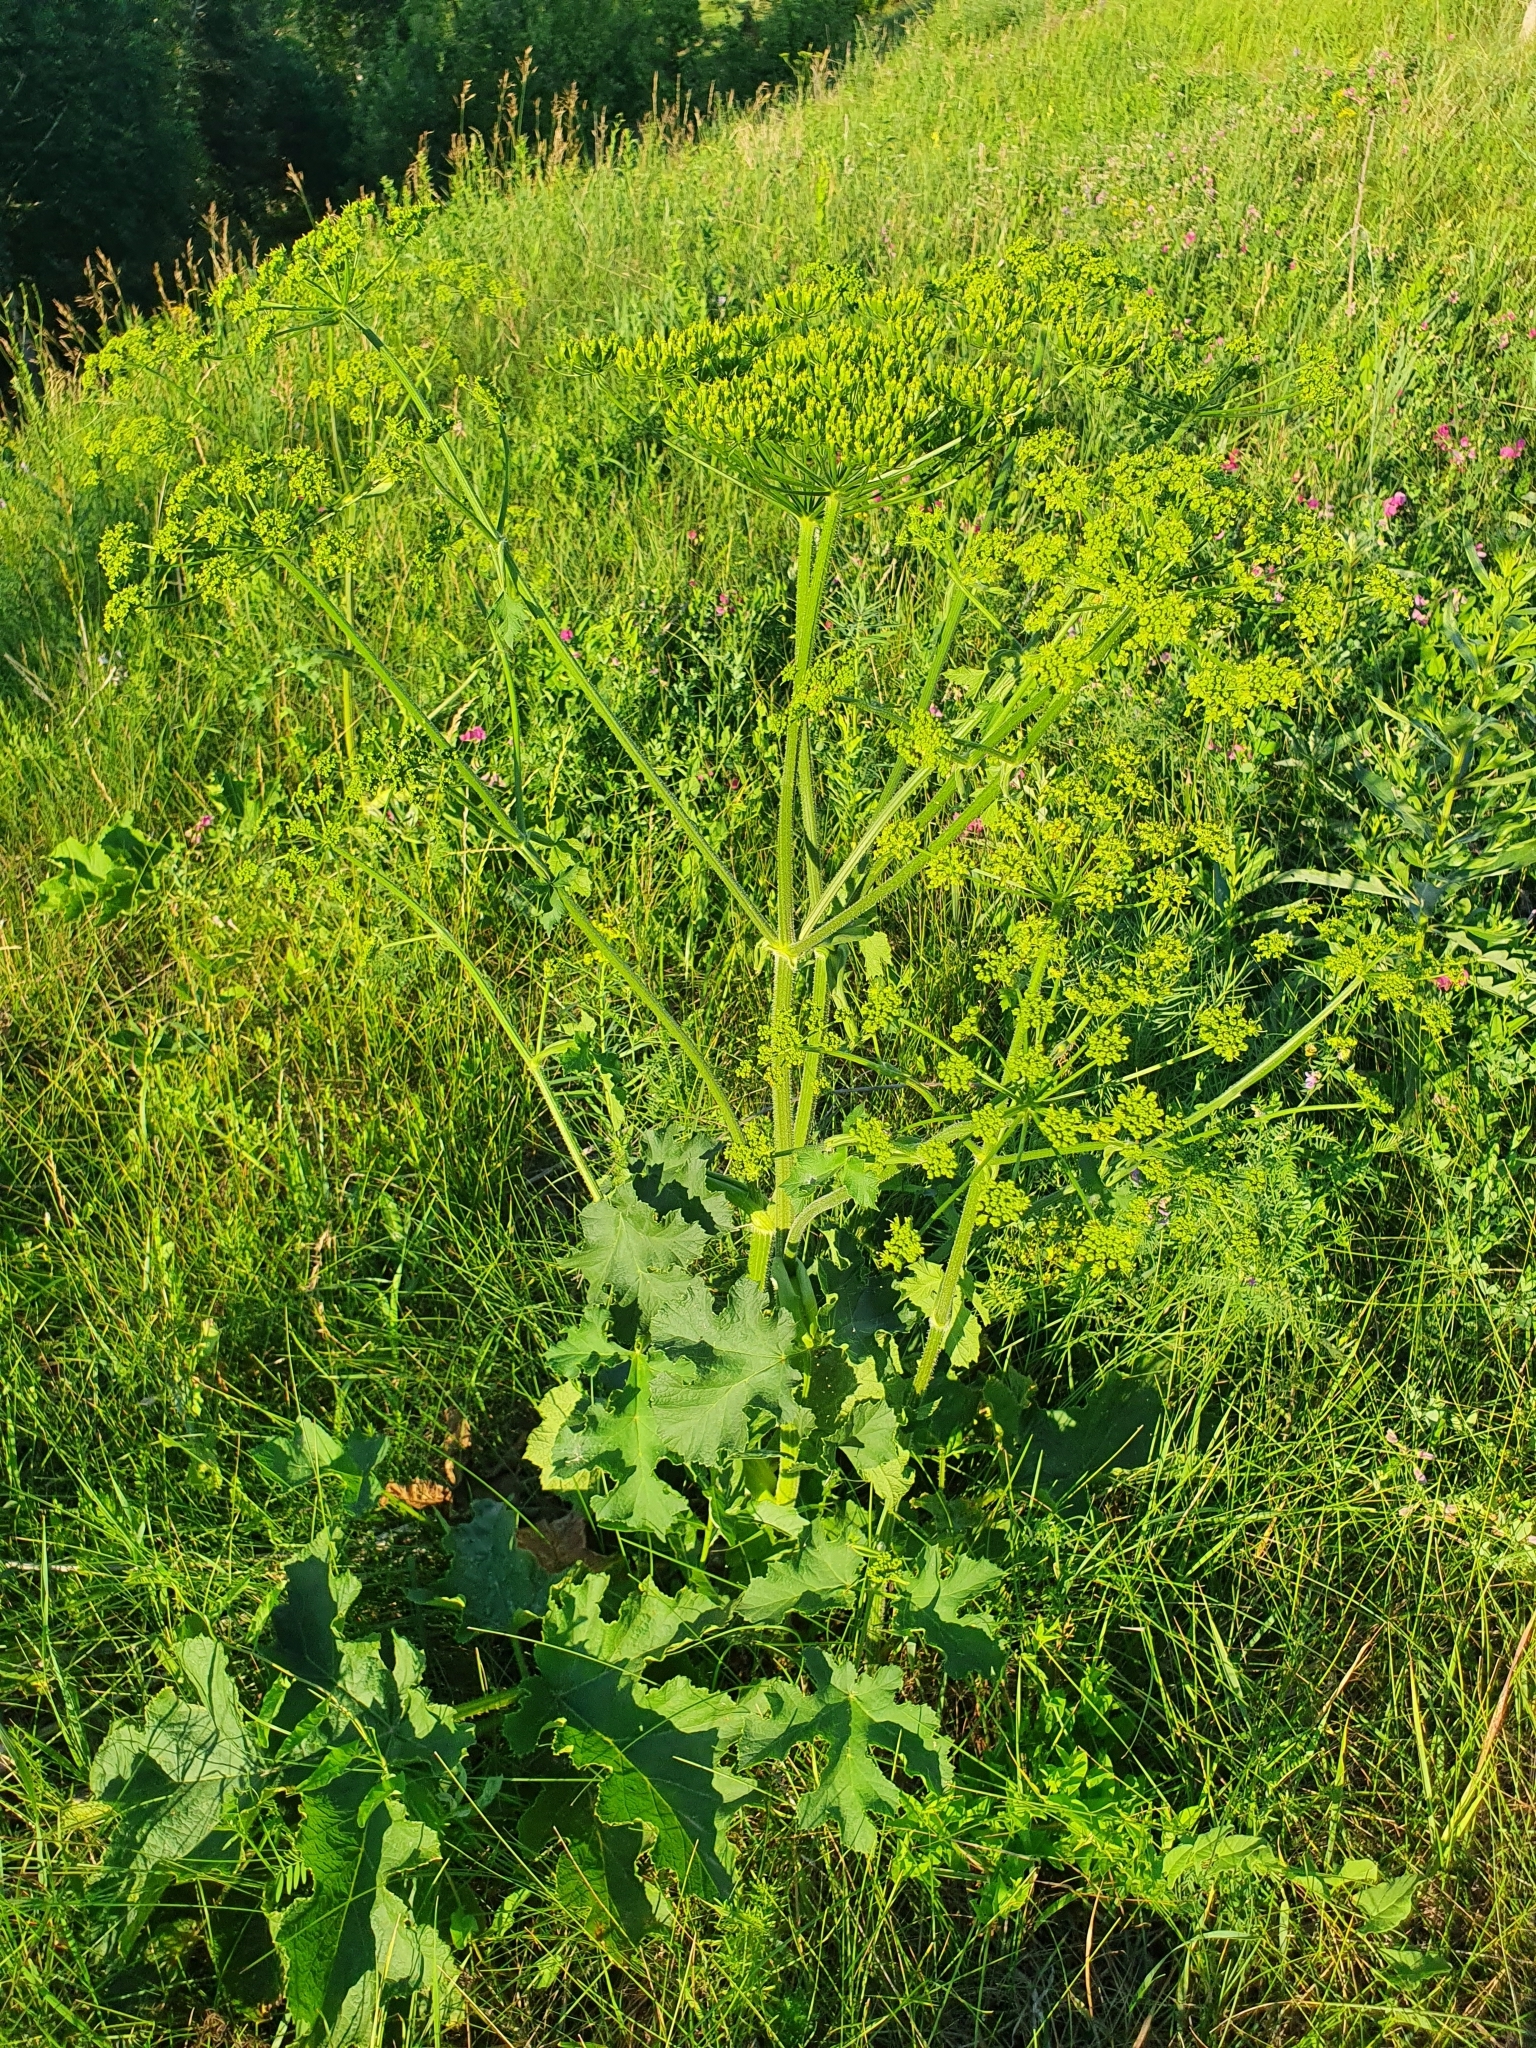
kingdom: Plantae
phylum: Tracheophyta
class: Magnoliopsida
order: Apiales
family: Apiaceae
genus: Heracleum
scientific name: Heracleum sphondylium
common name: Hogweed
